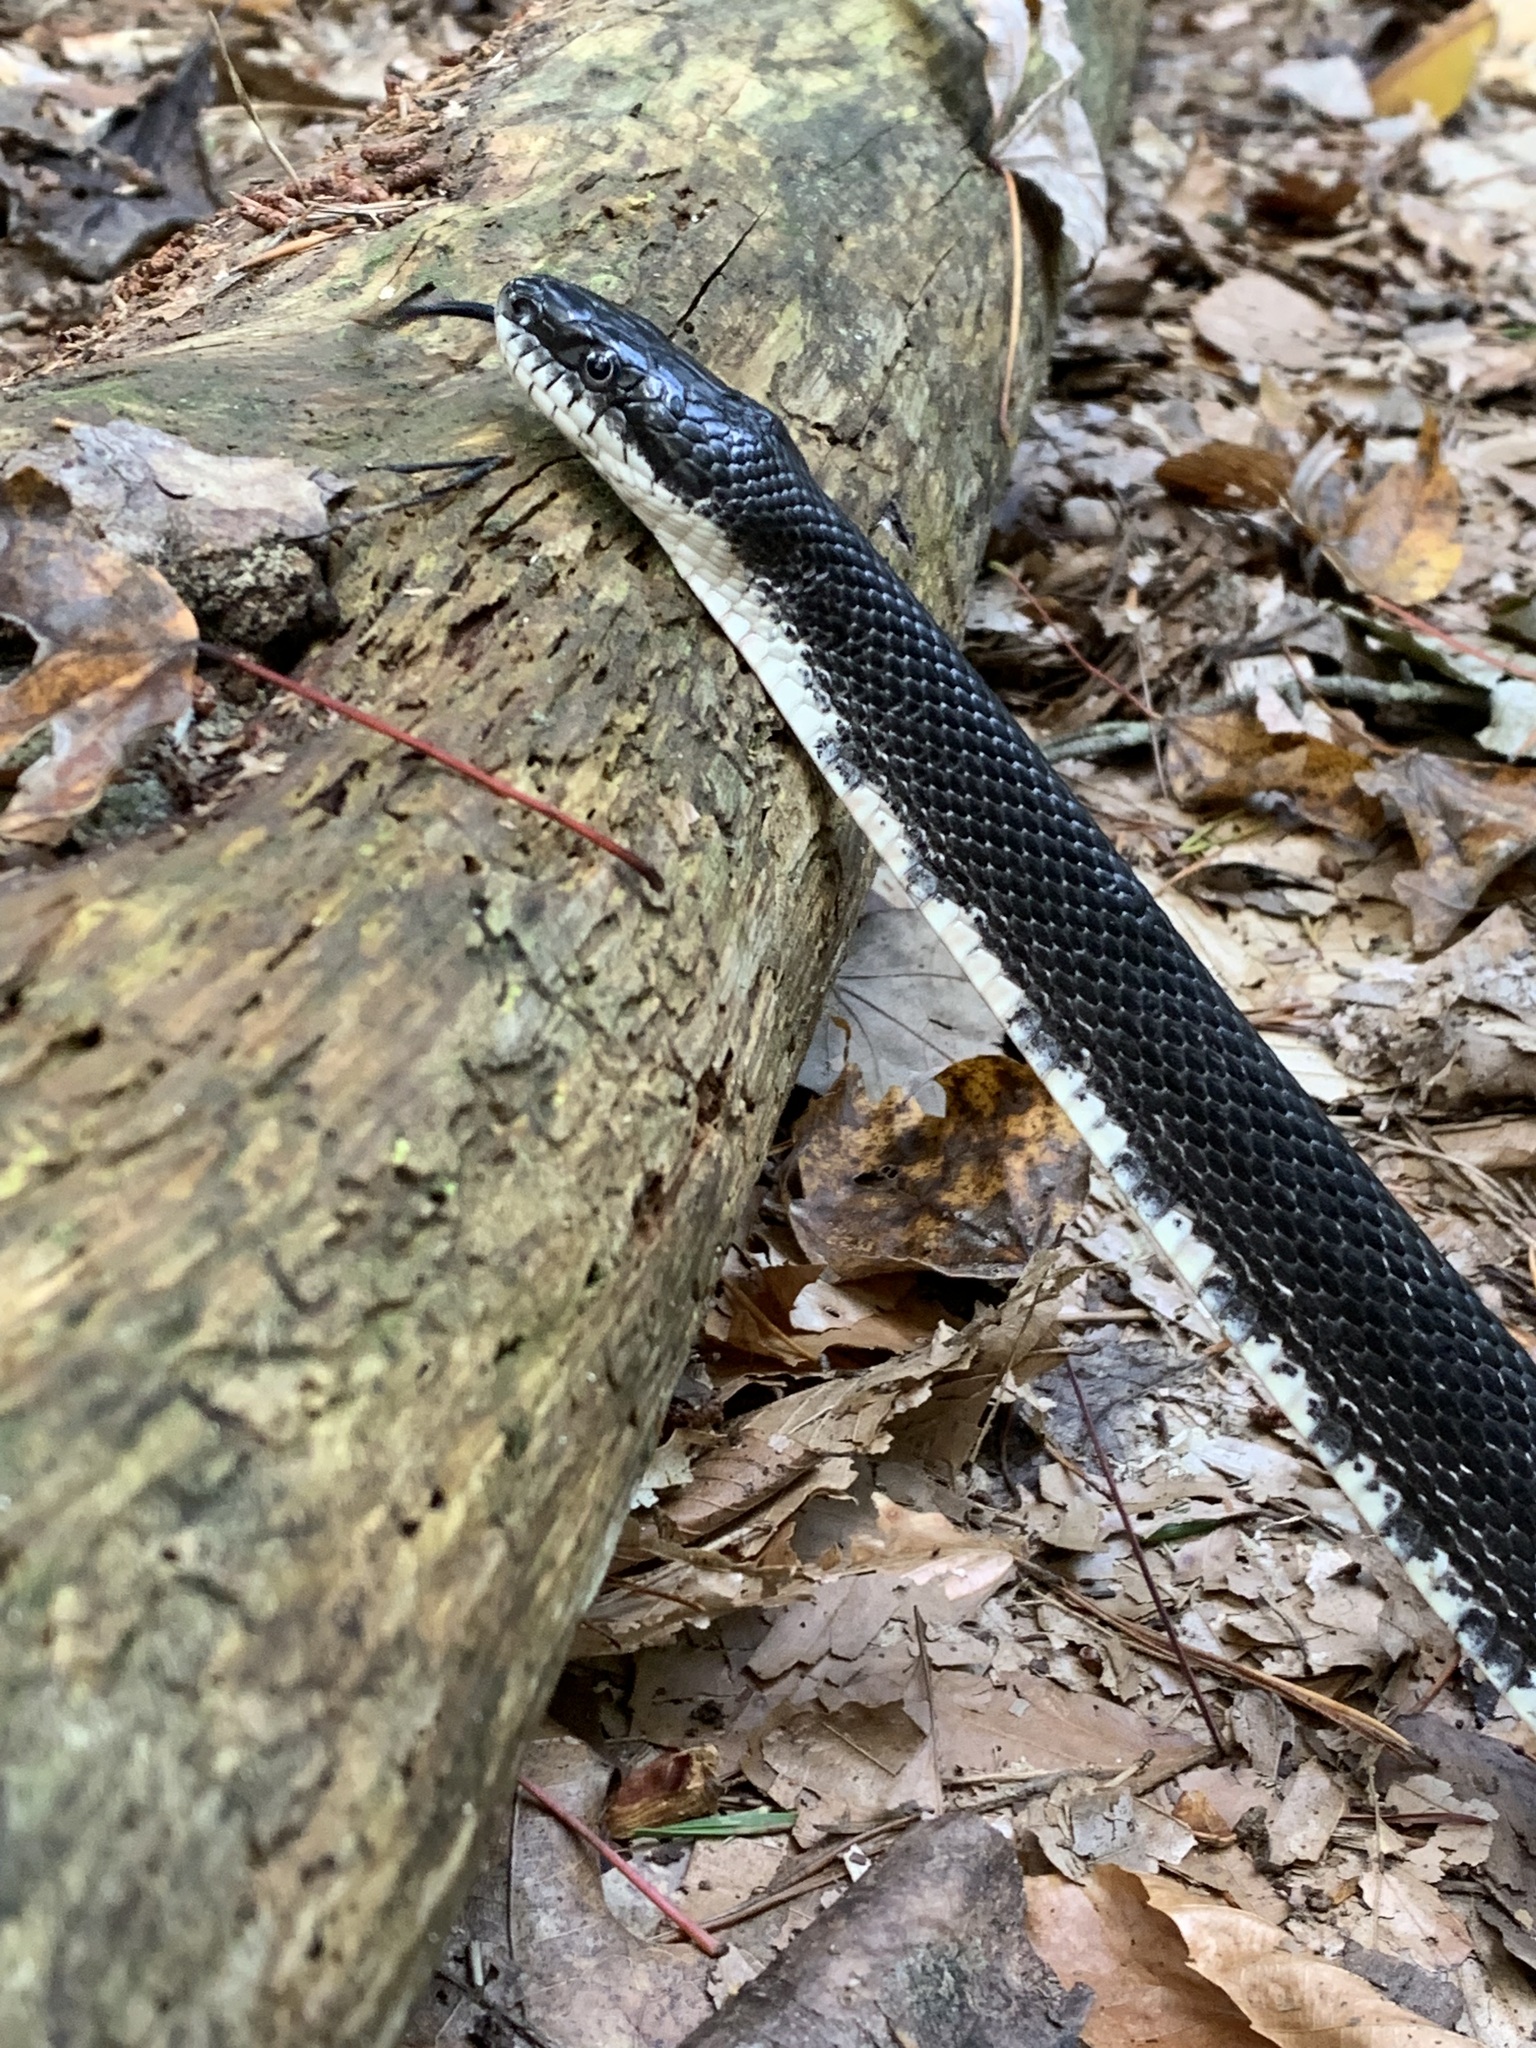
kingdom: Animalia
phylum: Chordata
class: Squamata
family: Colubridae
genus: Pantherophis
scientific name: Pantherophis alleghaniensis
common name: Eastern rat snake
